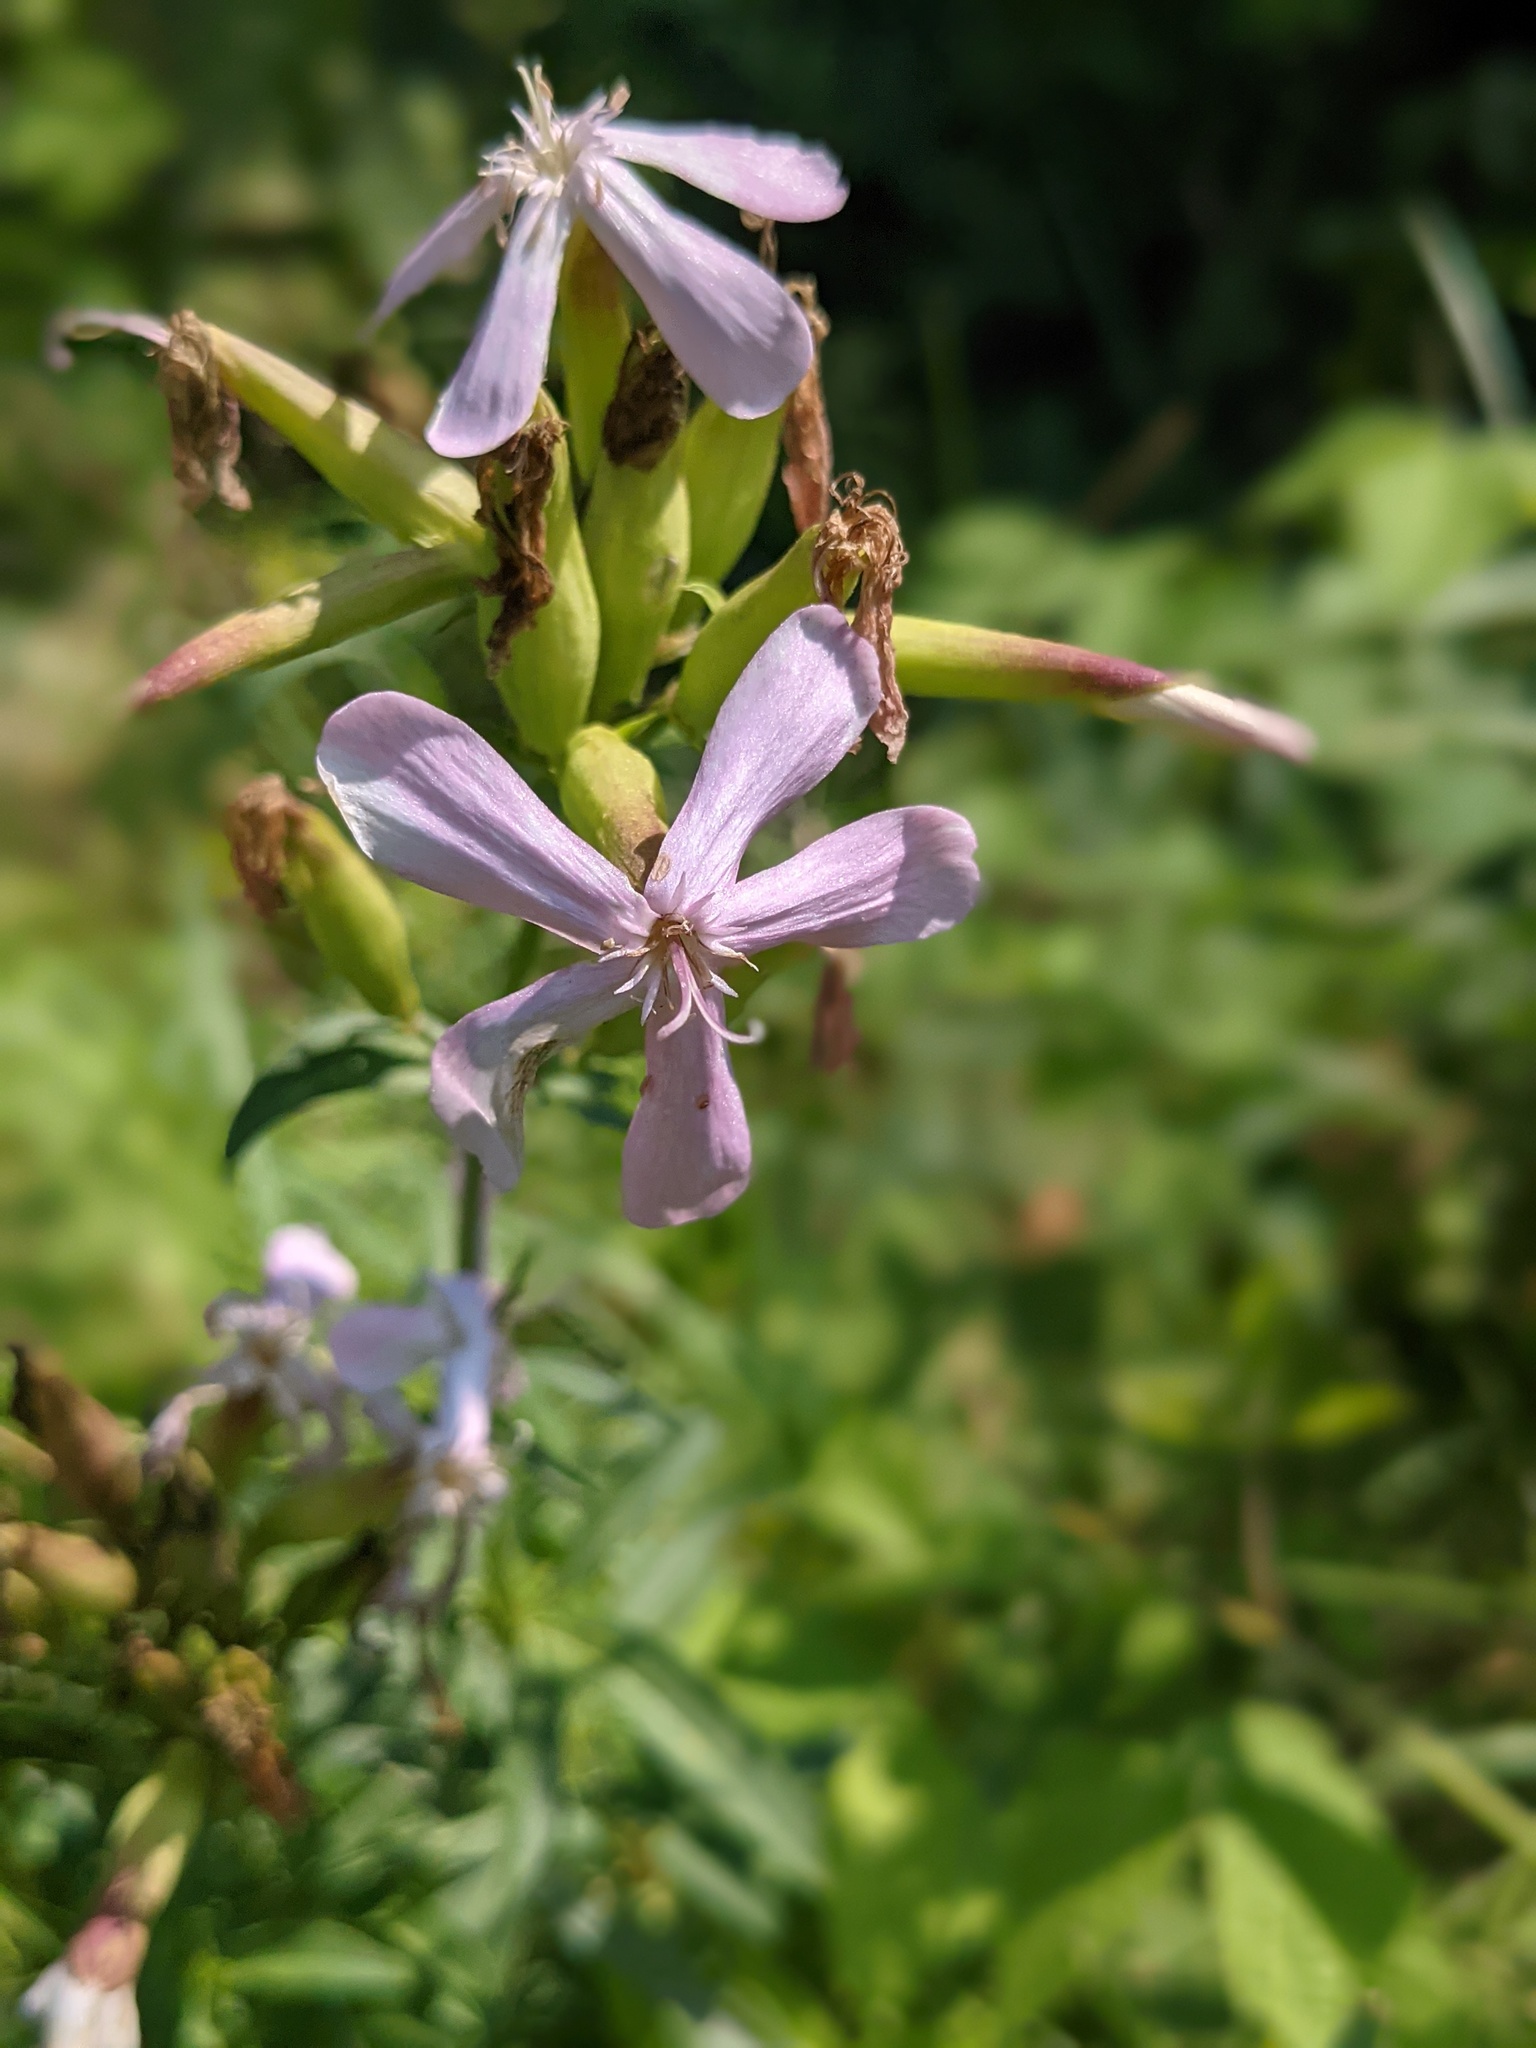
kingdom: Plantae
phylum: Tracheophyta
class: Magnoliopsida
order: Caryophyllales
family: Caryophyllaceae
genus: Saponaria
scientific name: Saponaria officinalis
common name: Soapwort
